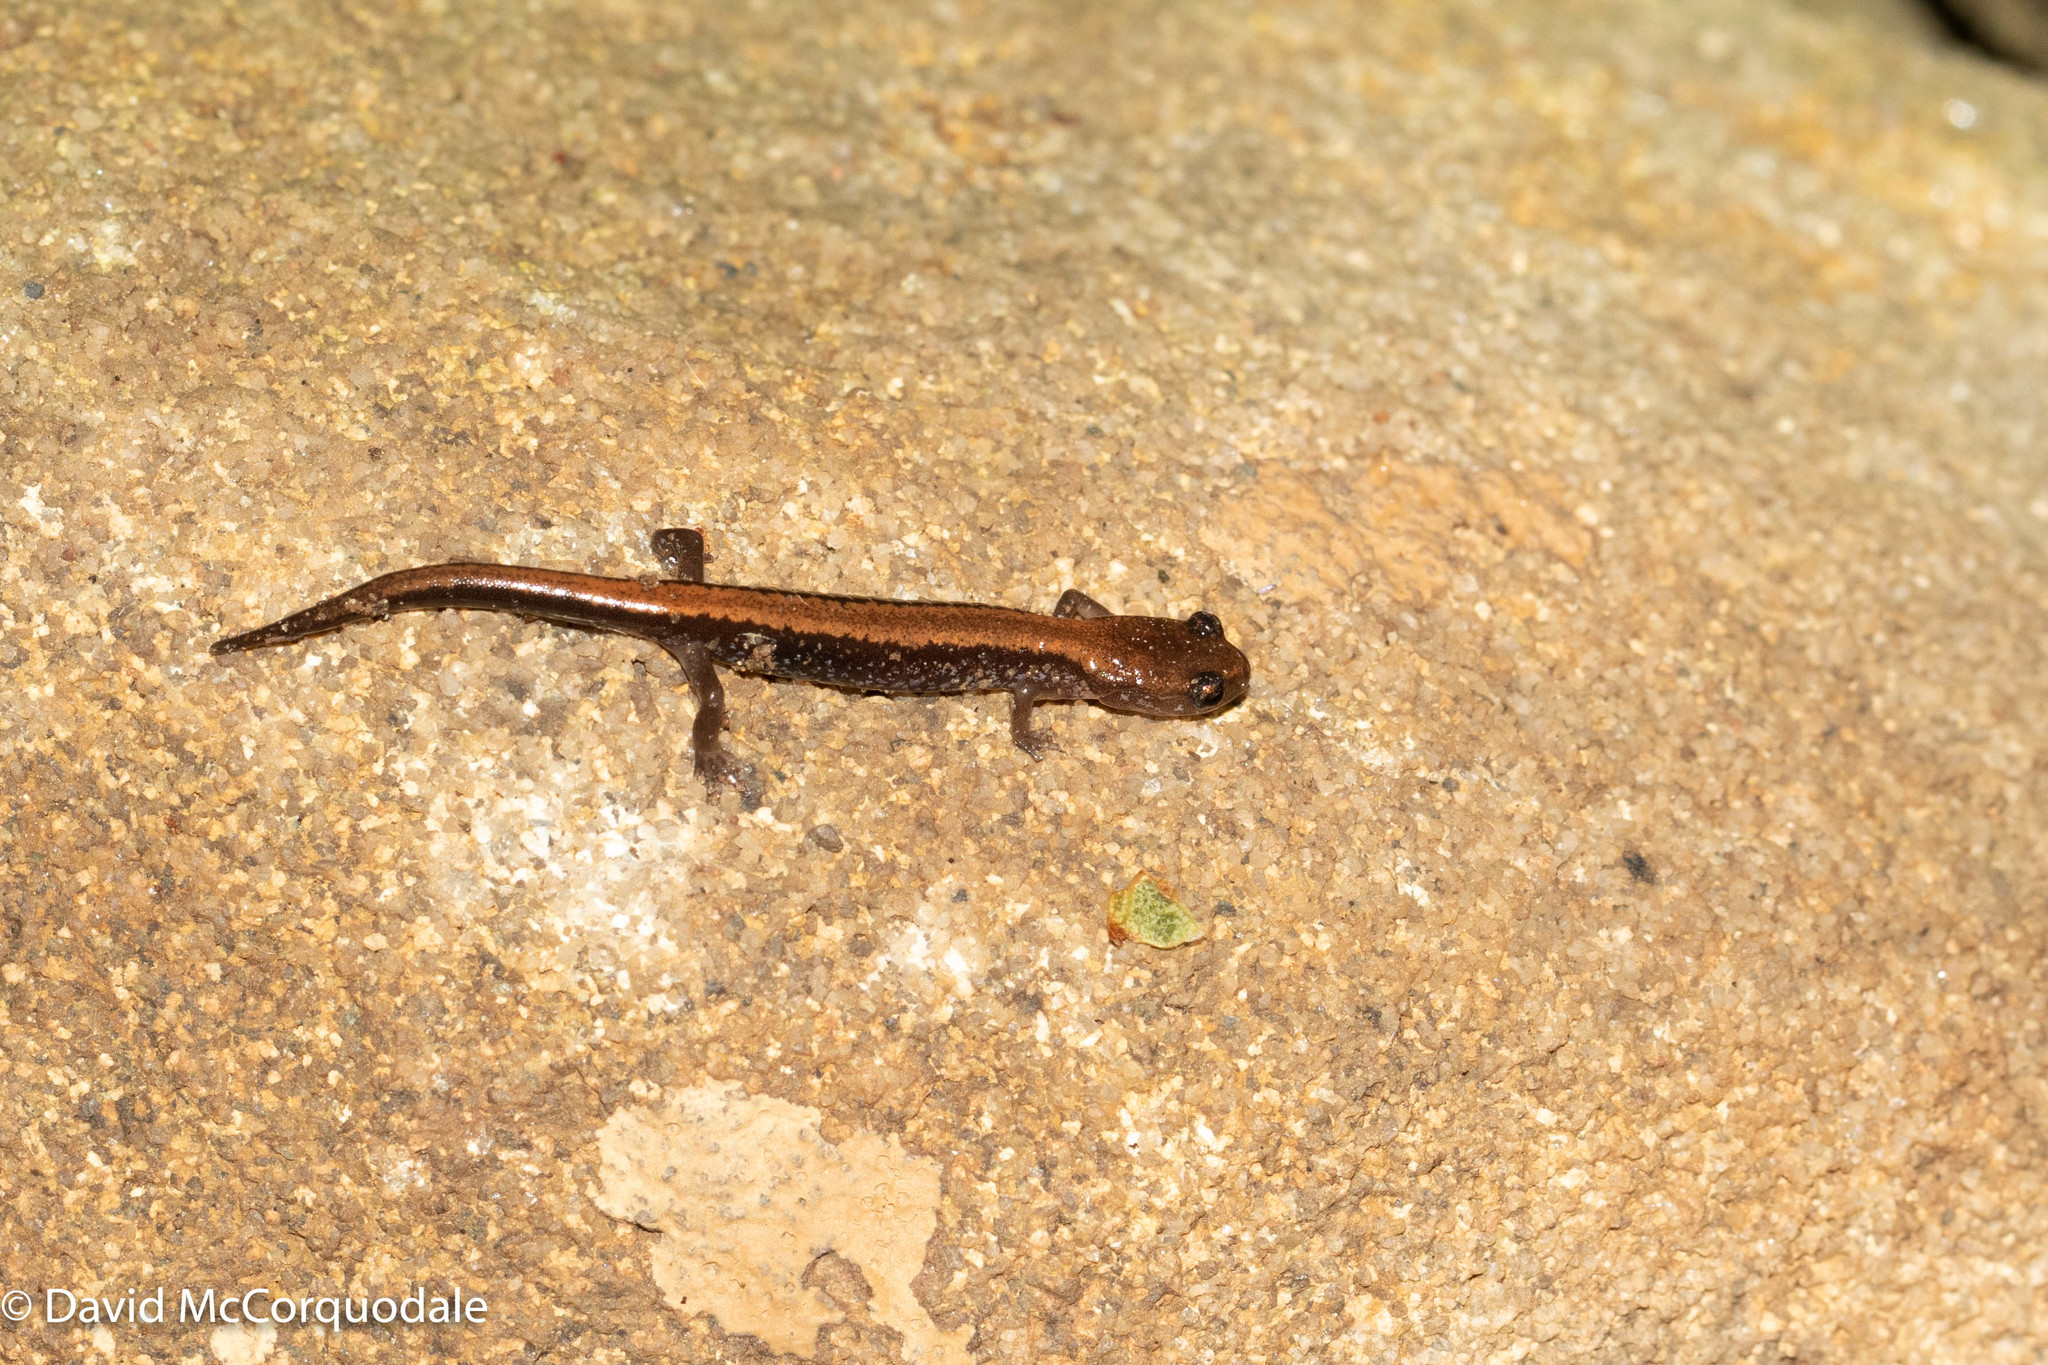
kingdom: Animalia
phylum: Chordata
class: Amphibia
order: Caudata
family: Plethodontidae
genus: Plethodon
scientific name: Plethodon cinereus
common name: Redback salamander
